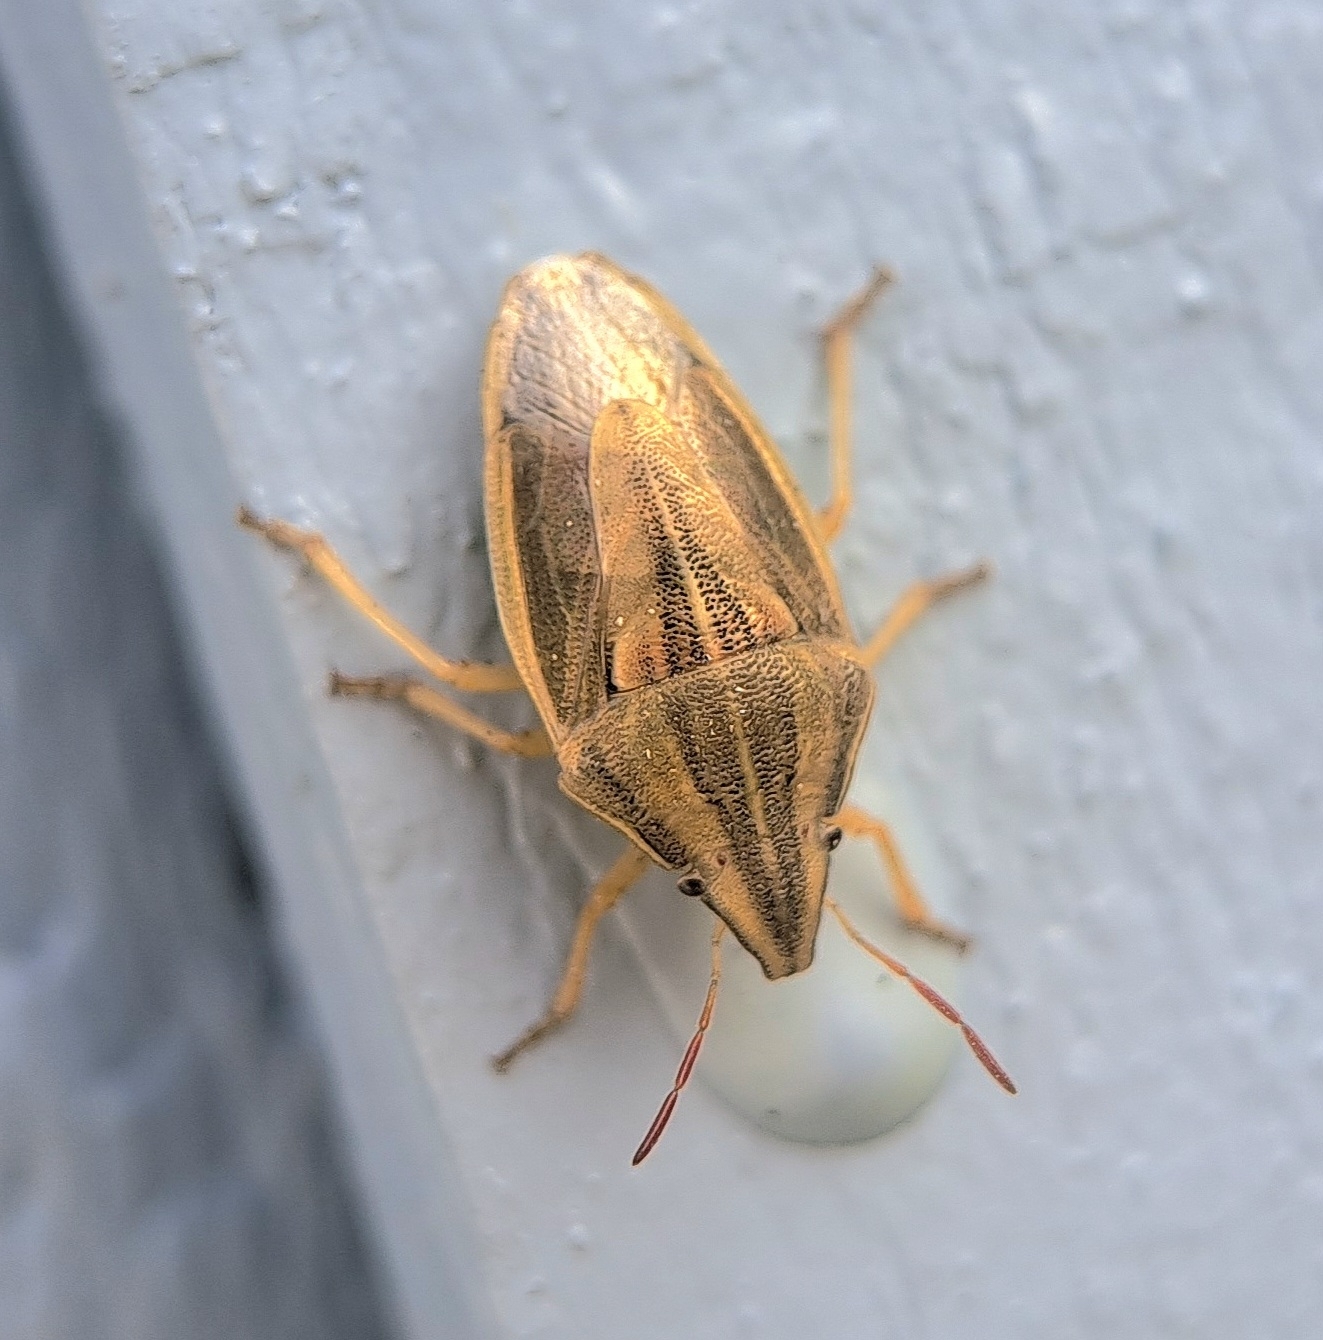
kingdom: Animalia
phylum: Arthropoda
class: Insecta
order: Hemiptera
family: Pentatomidae
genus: Aelia
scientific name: Aelia acuminata
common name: Bishop's mitre
